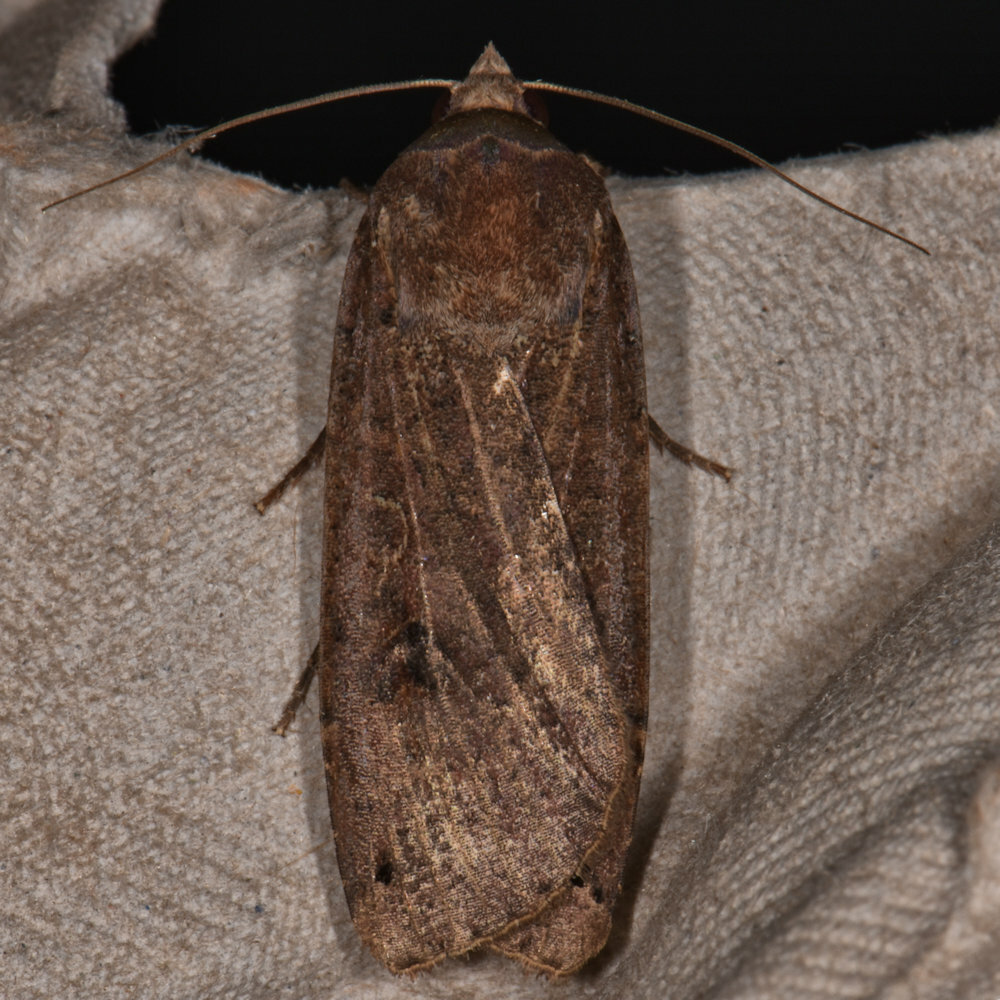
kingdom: Animalia
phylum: Arthropoda
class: Insecta
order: Lepidoptera
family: Noctuidae
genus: Noctua
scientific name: Noctua pronuba
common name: Large yellow underwing
